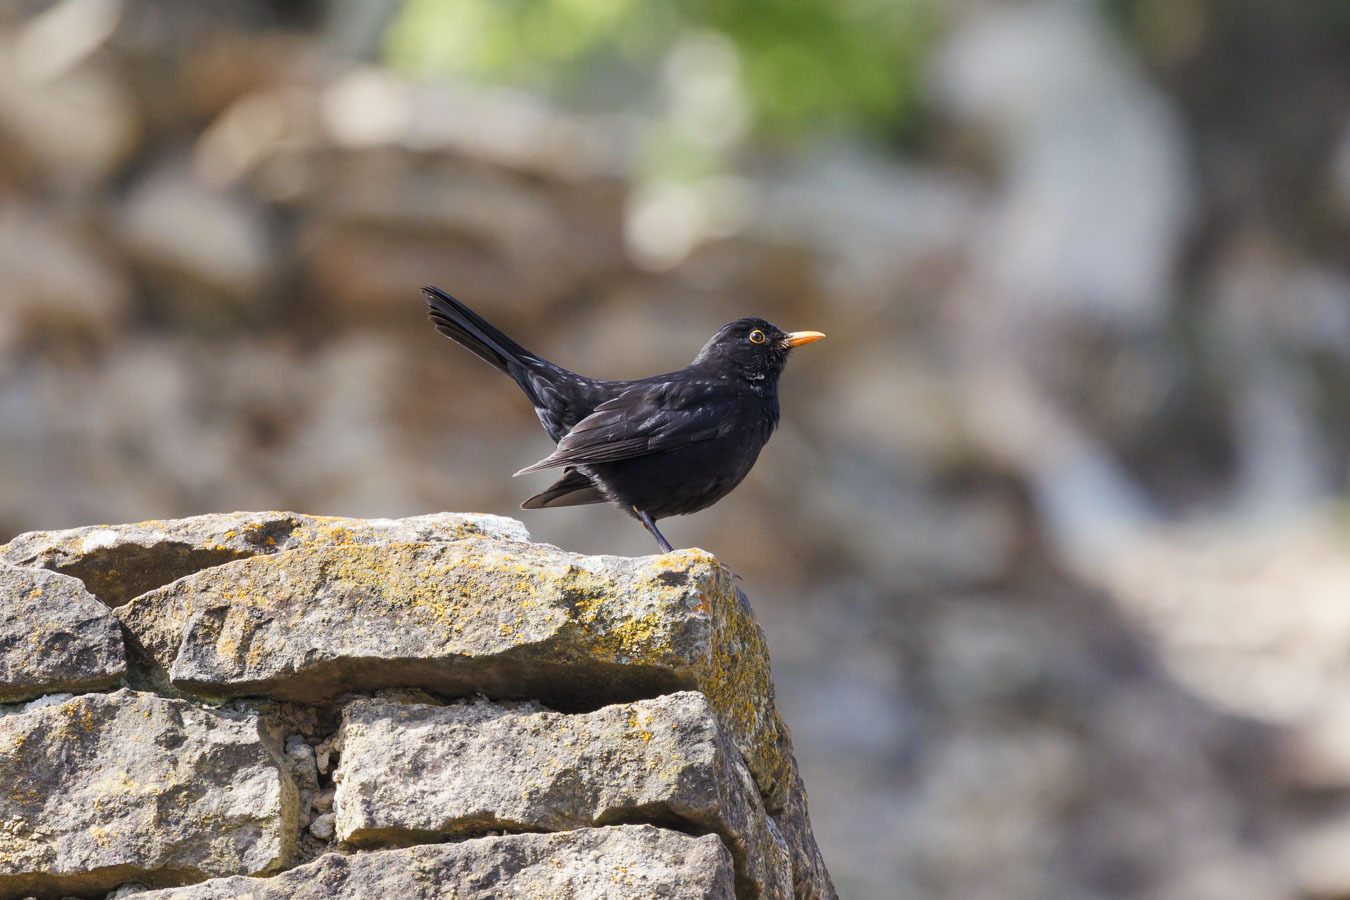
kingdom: Animalia
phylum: Chordata
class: Aves
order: Passeriformes
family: Turdidae
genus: Turdus
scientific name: Turdus merula
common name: Common blackbird
